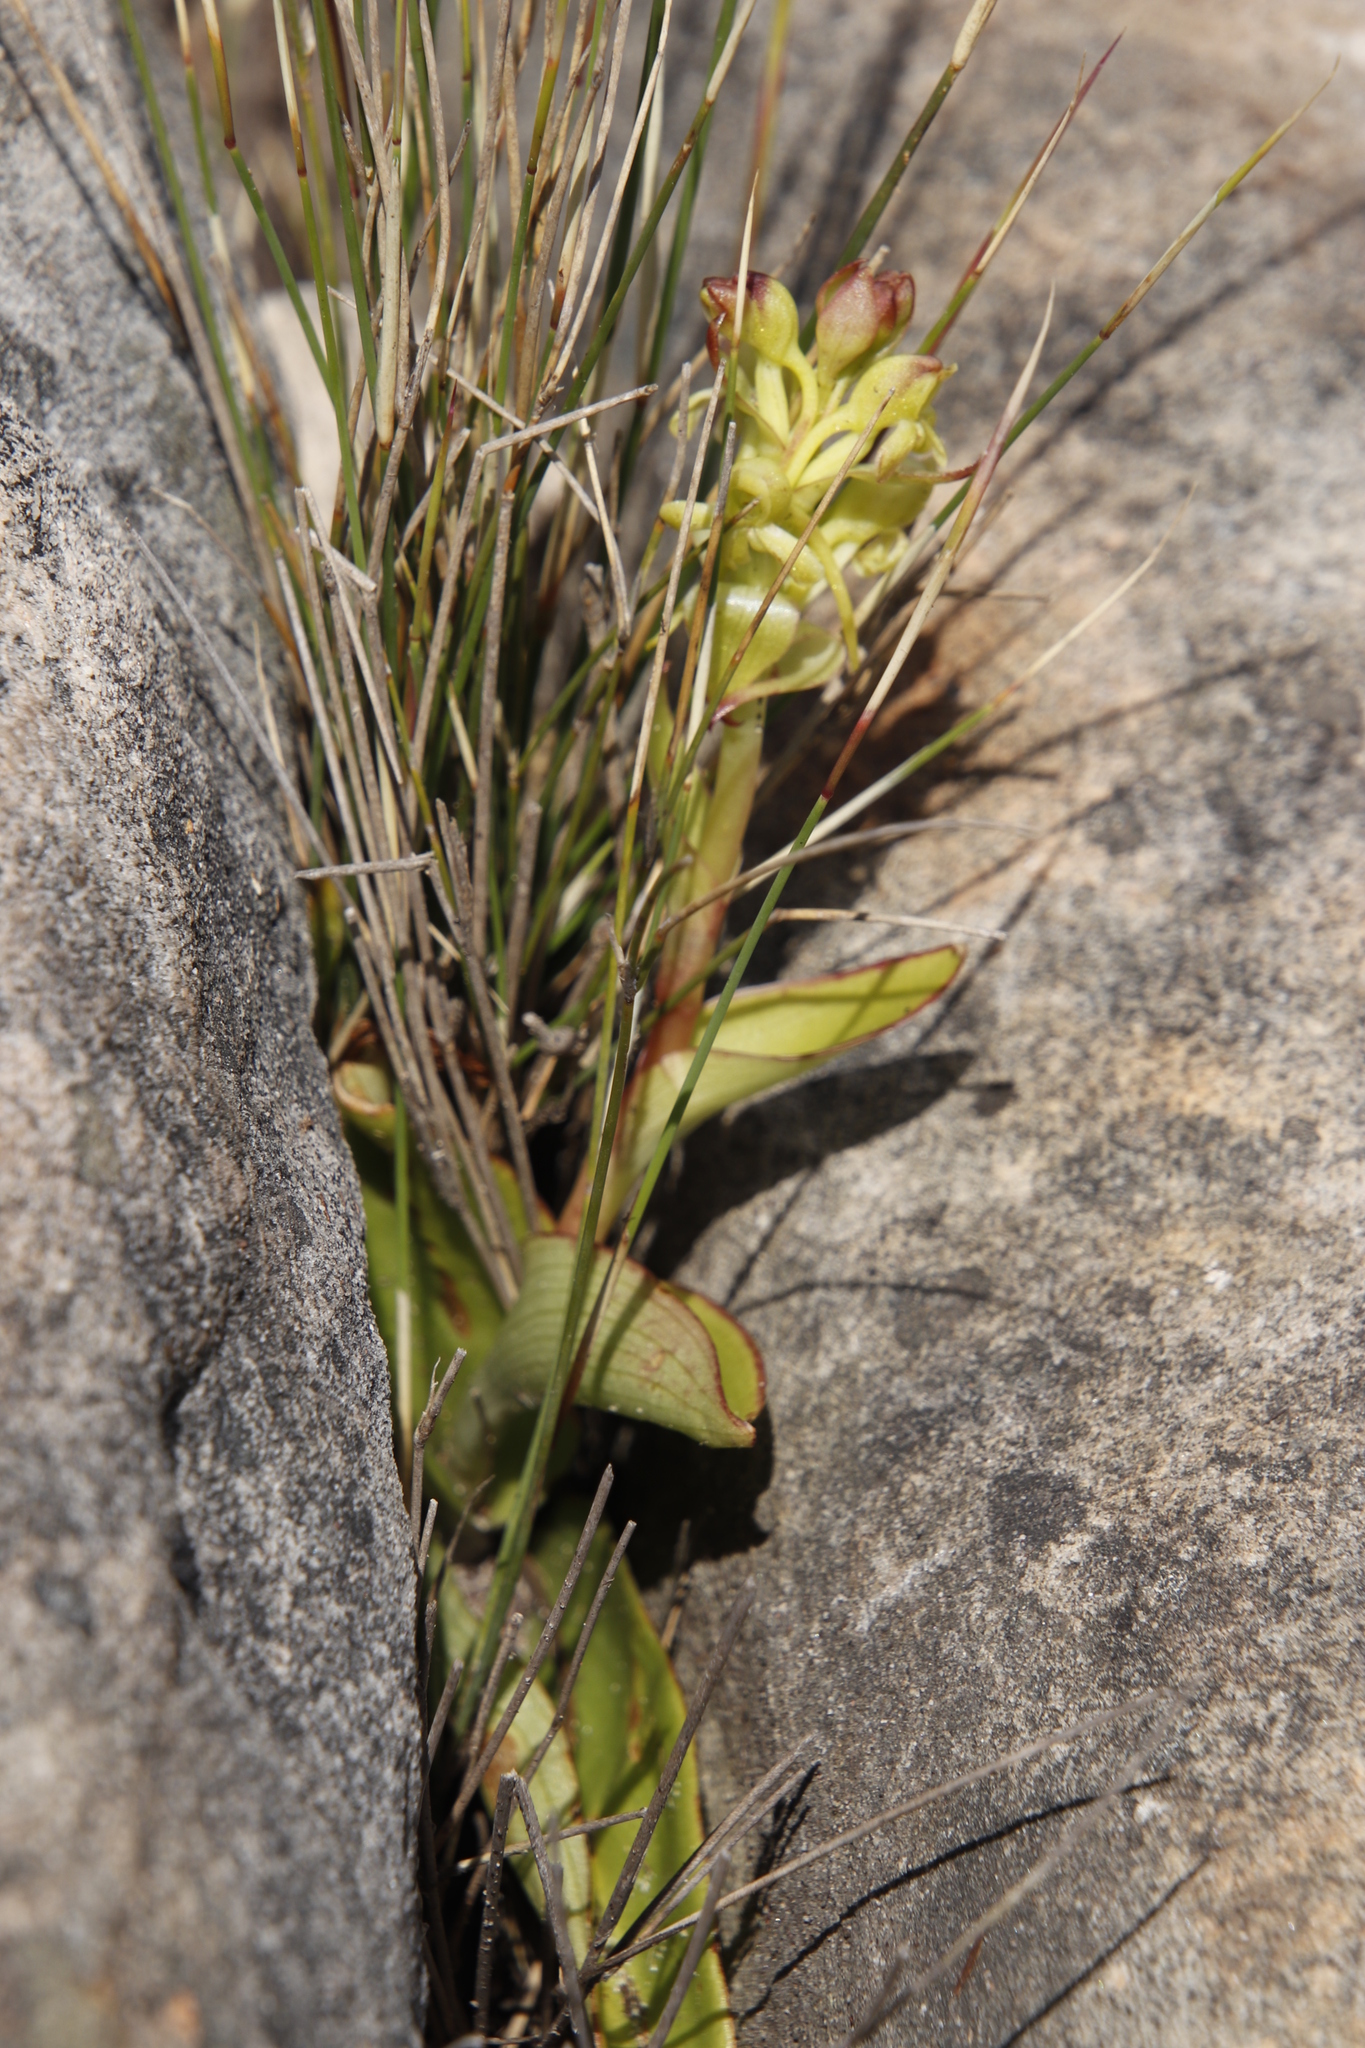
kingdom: Plantae
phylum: Tracheophyta
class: Liliopsida
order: Asparagales
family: Orchidaceae
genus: Satyrium
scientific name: Satyrium odorum
